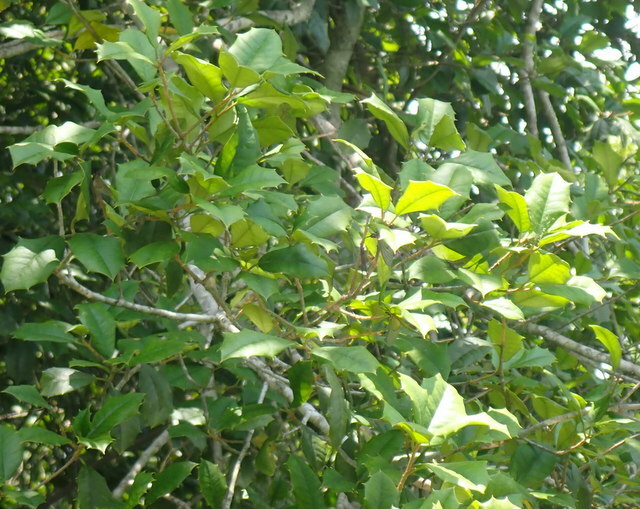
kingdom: Plantae
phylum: Tracheophyta
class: Magnoliopsida
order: Aquifoliales
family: Aquifoliaceae
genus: Ilex
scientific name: Ilex opaca
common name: American holly
